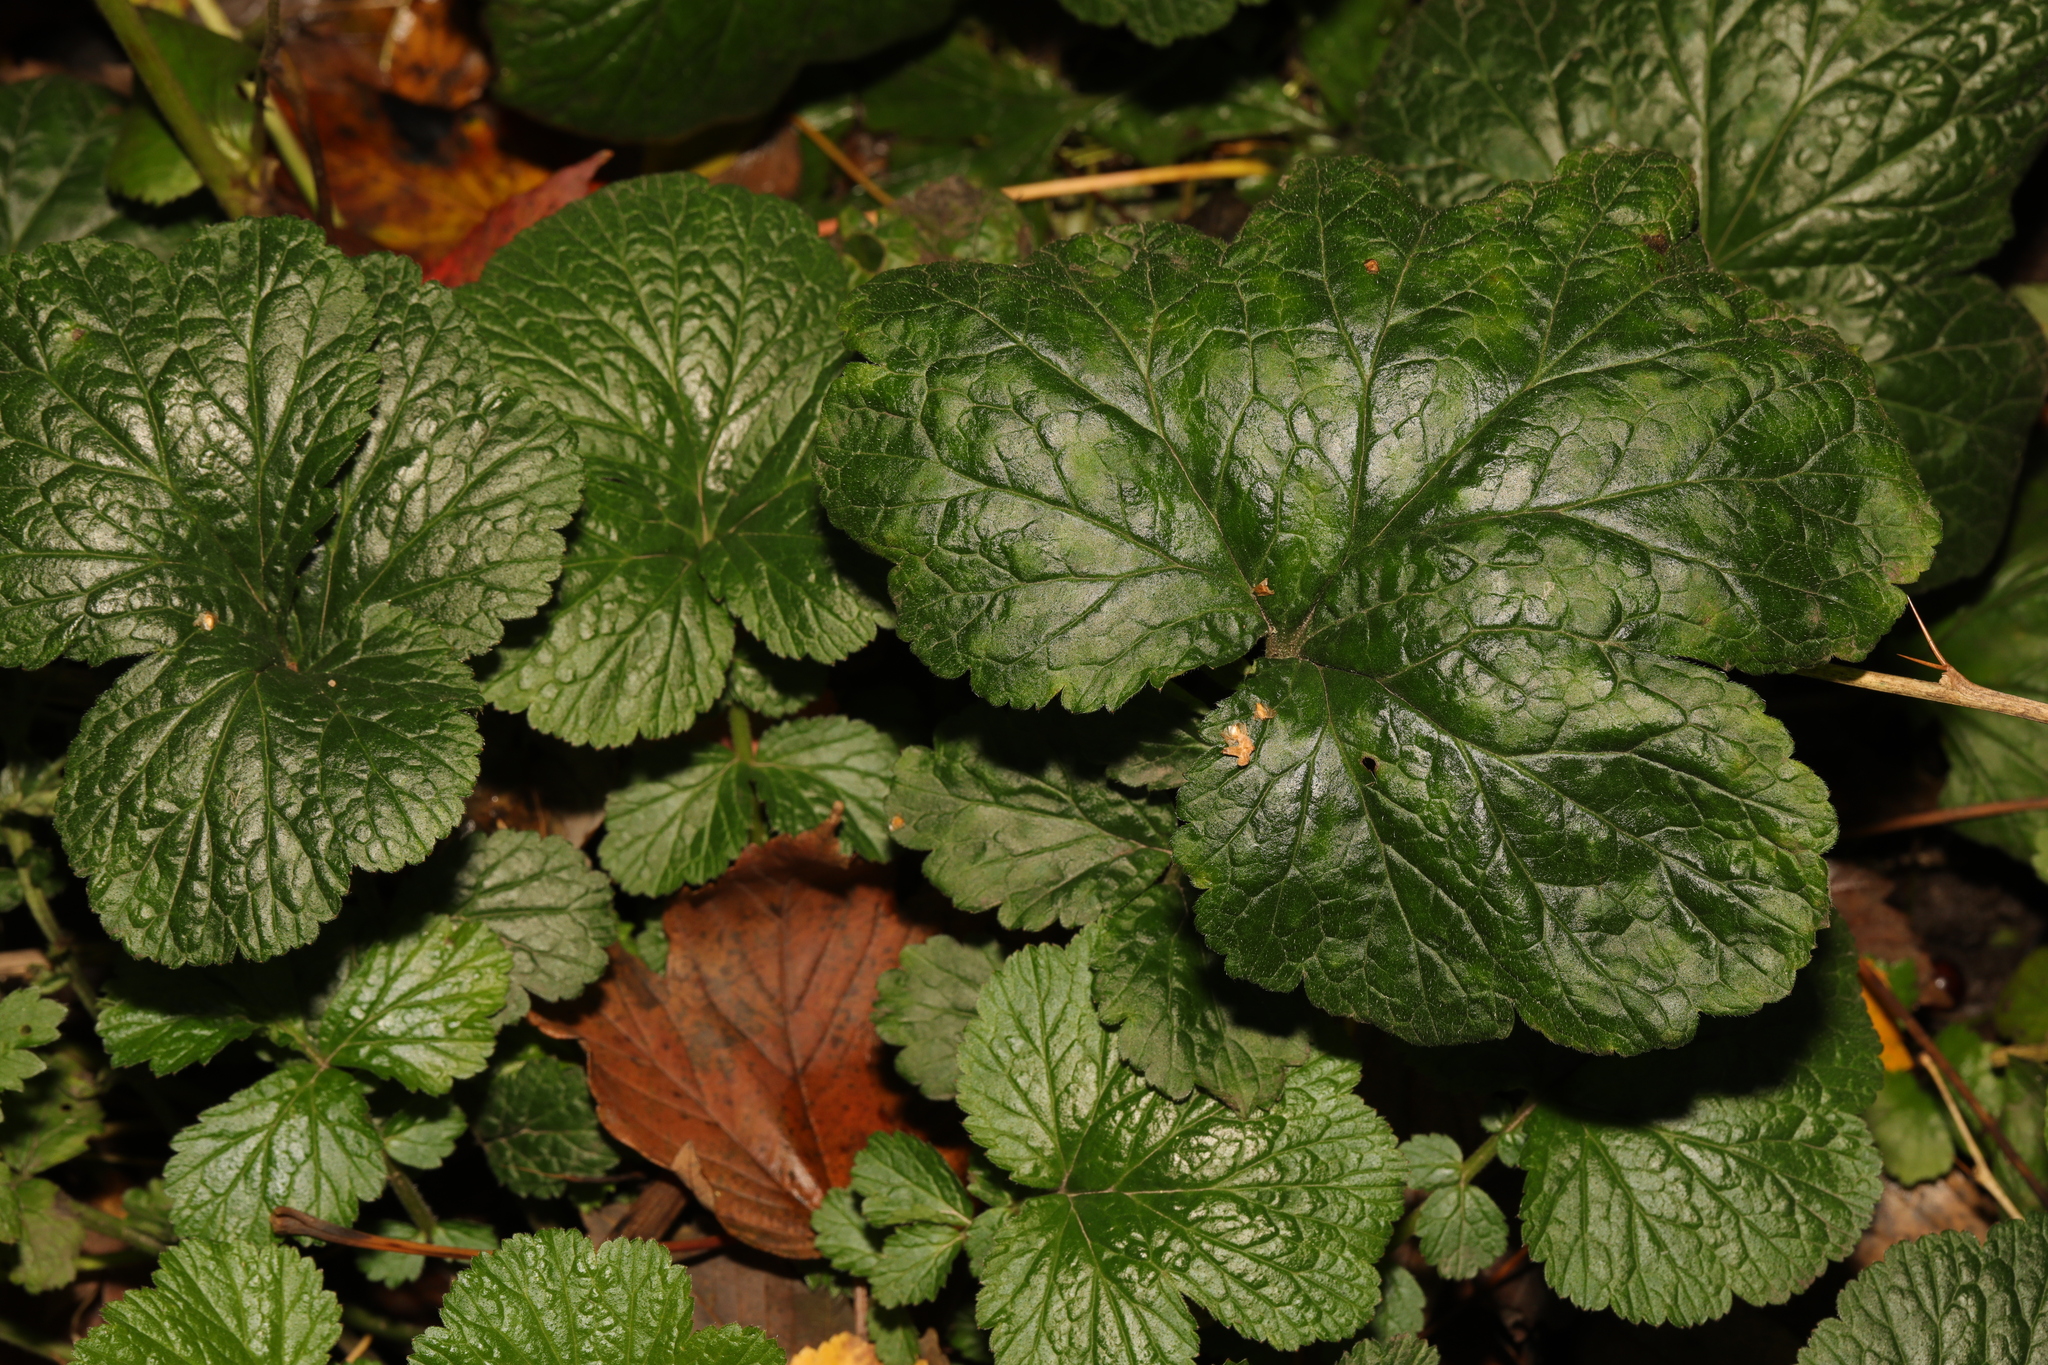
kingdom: Plantae
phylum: Tracheophyta
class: Magnoliopsida
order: Rosales
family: Rosaceae
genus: Geum
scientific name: Geum urbanum
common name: Wood avens
